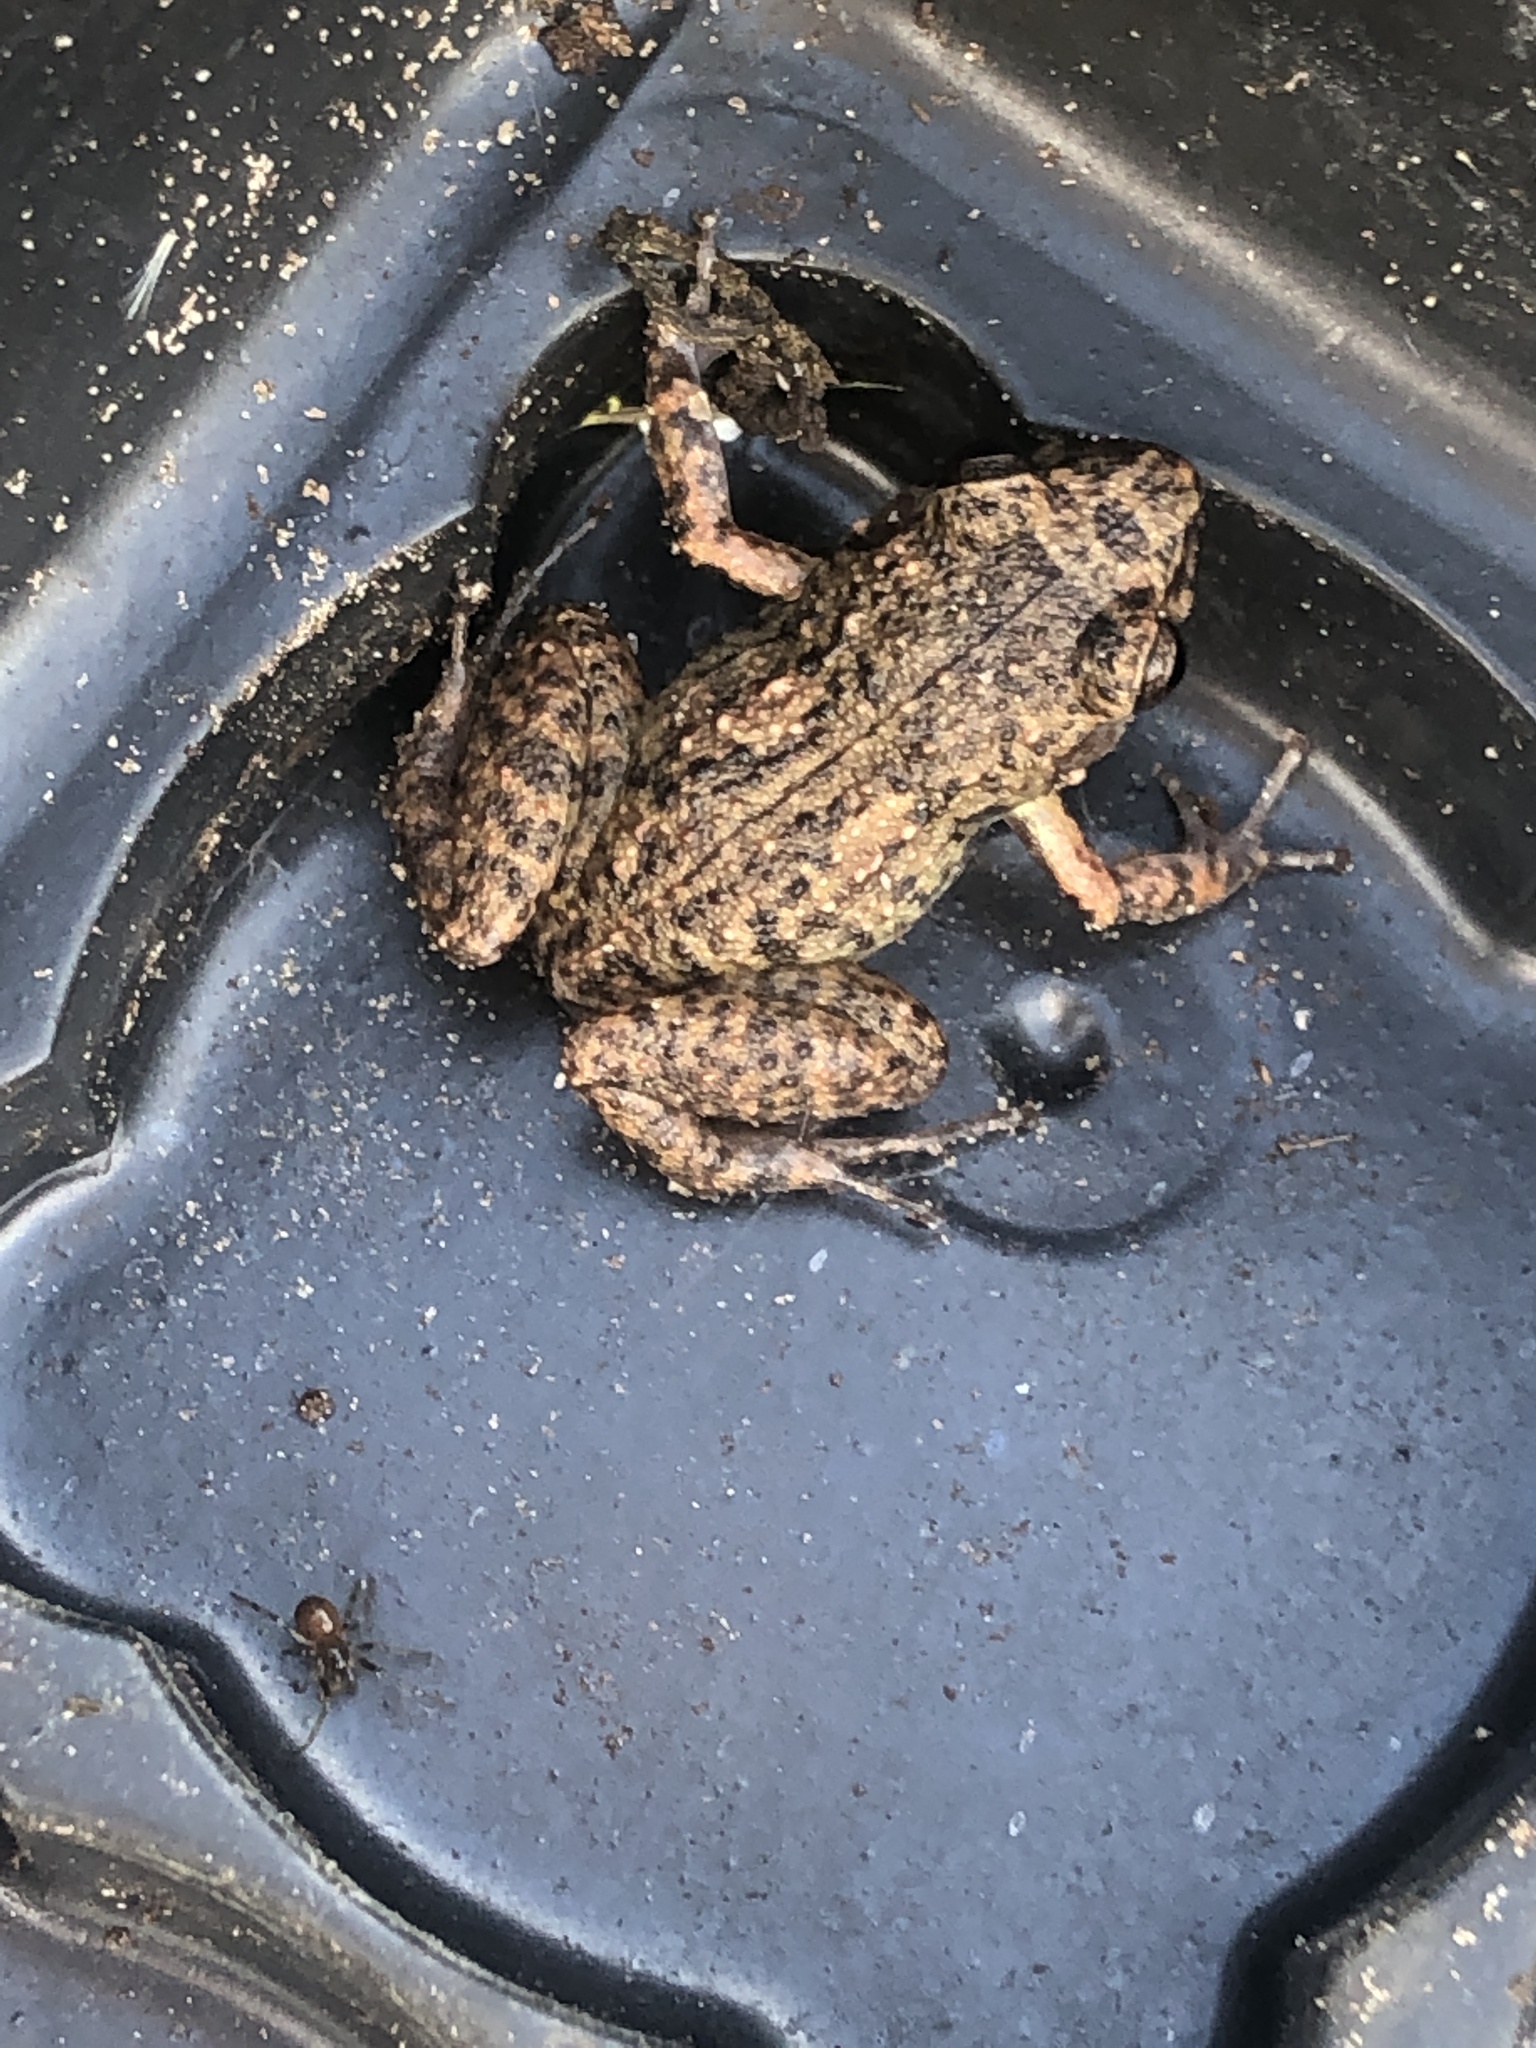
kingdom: Animalia
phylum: Chordata
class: Amphibia
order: Anura
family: Eleutherodactylidae
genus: Eleutherodactylus
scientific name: Eleutherodactylus planirostris
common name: Greenhouse frog
